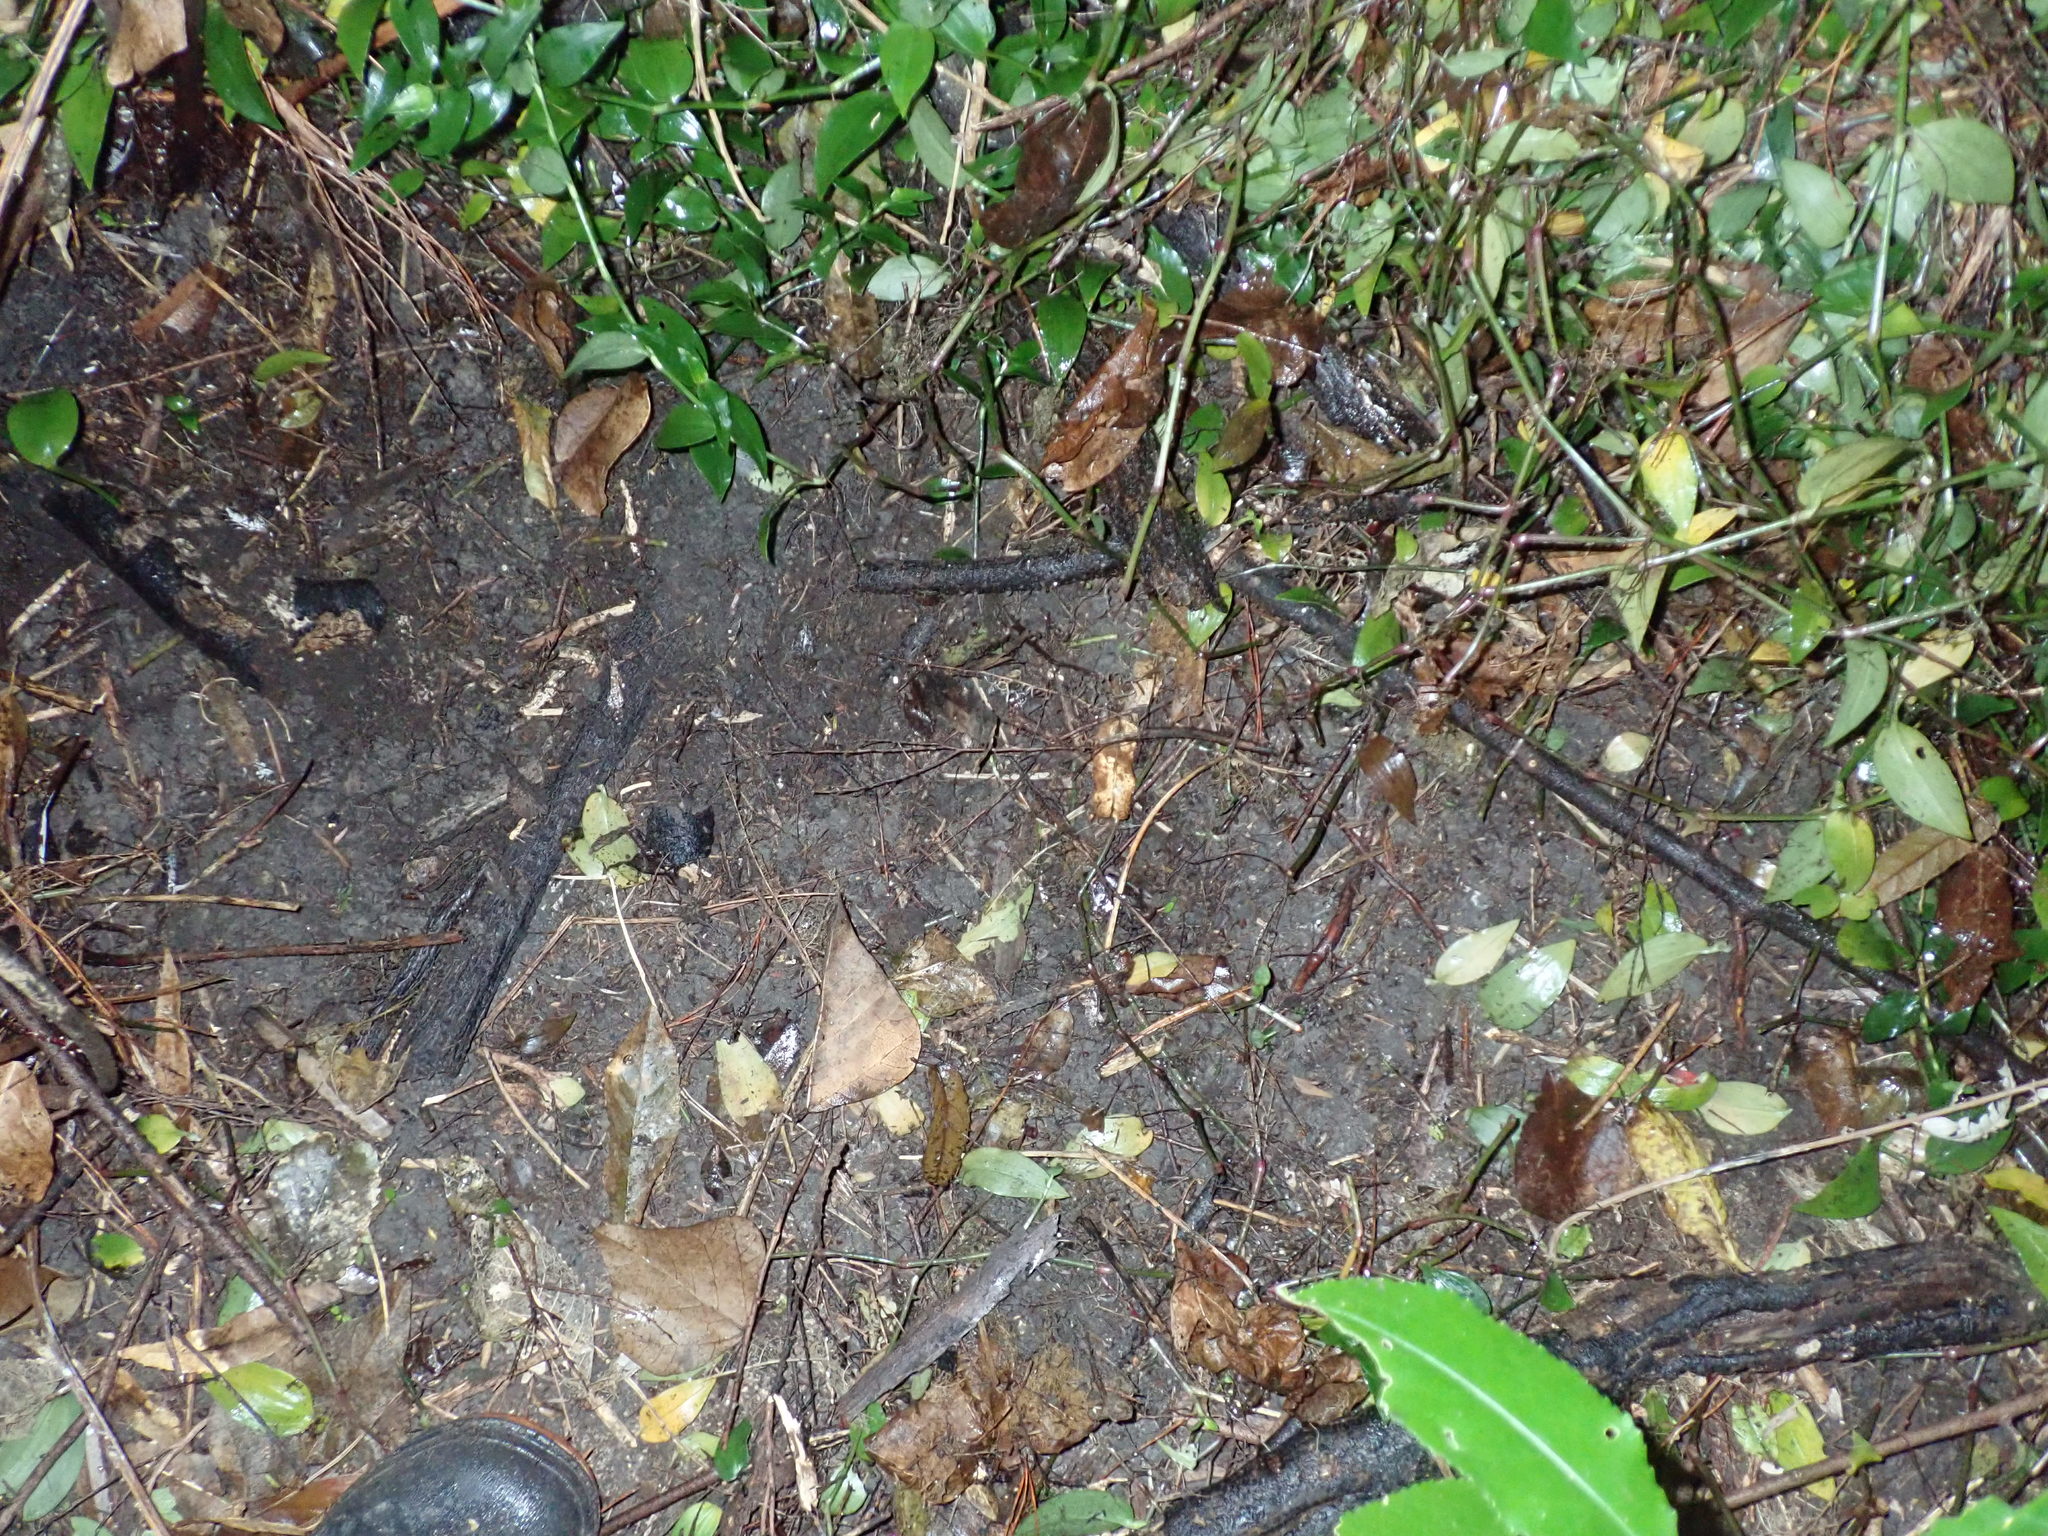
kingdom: Plantae
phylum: Tracheophyta
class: Liliopsida
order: Commelinales
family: Commelinaceae
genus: Tradescantia
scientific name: Tradescantia fluminensis
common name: Wandering-jew
